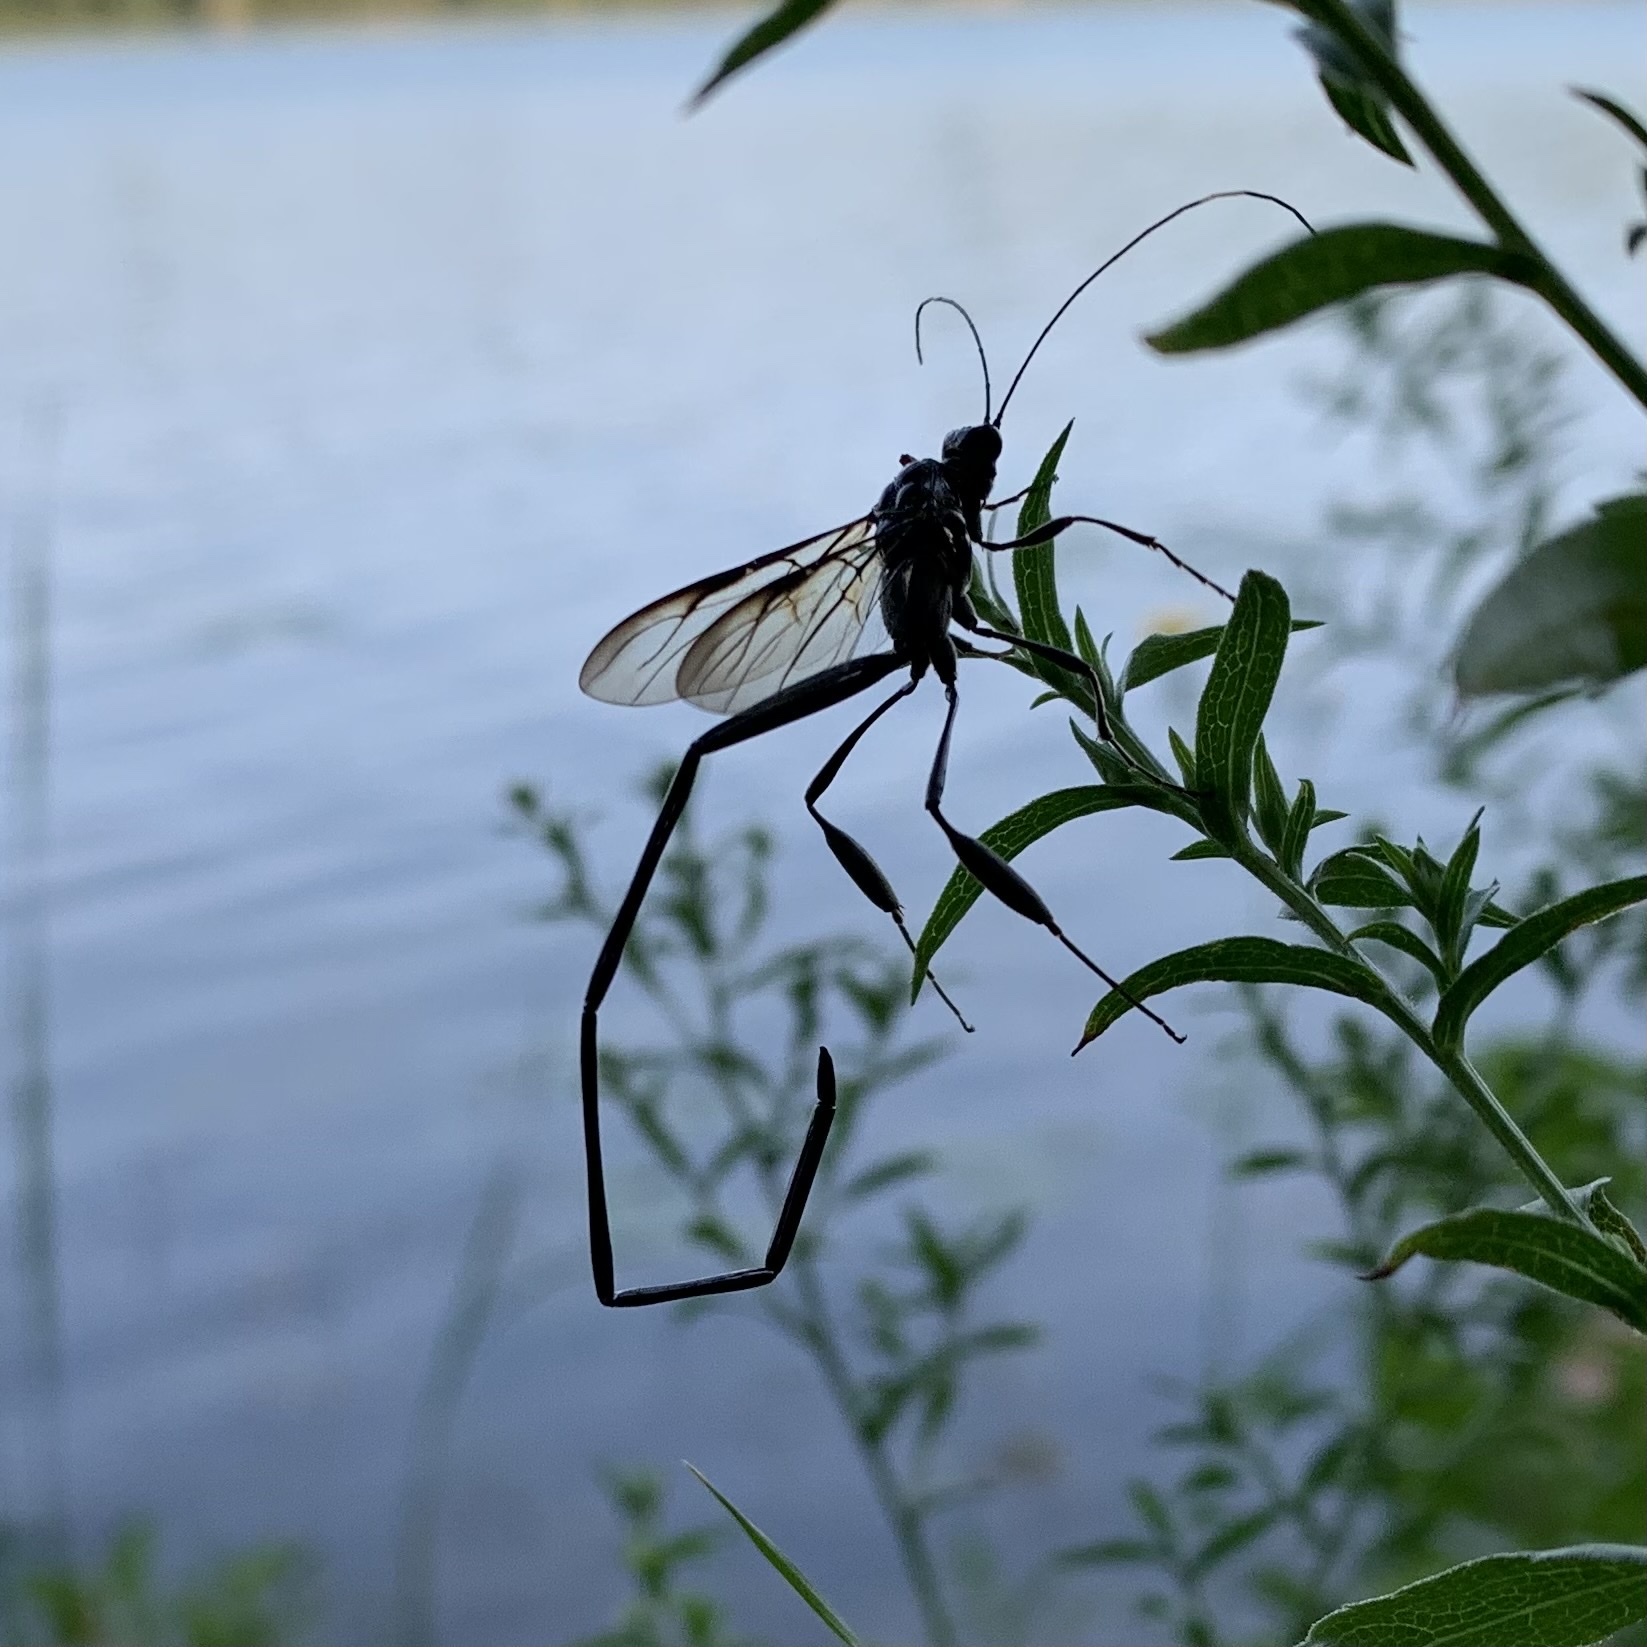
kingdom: Animalia
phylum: Arthropoda
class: Insecta
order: Hymenoptera
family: Pelecinidae
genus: Pelecinus
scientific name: Pelecinus polyturator
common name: American pelecinid wasp
